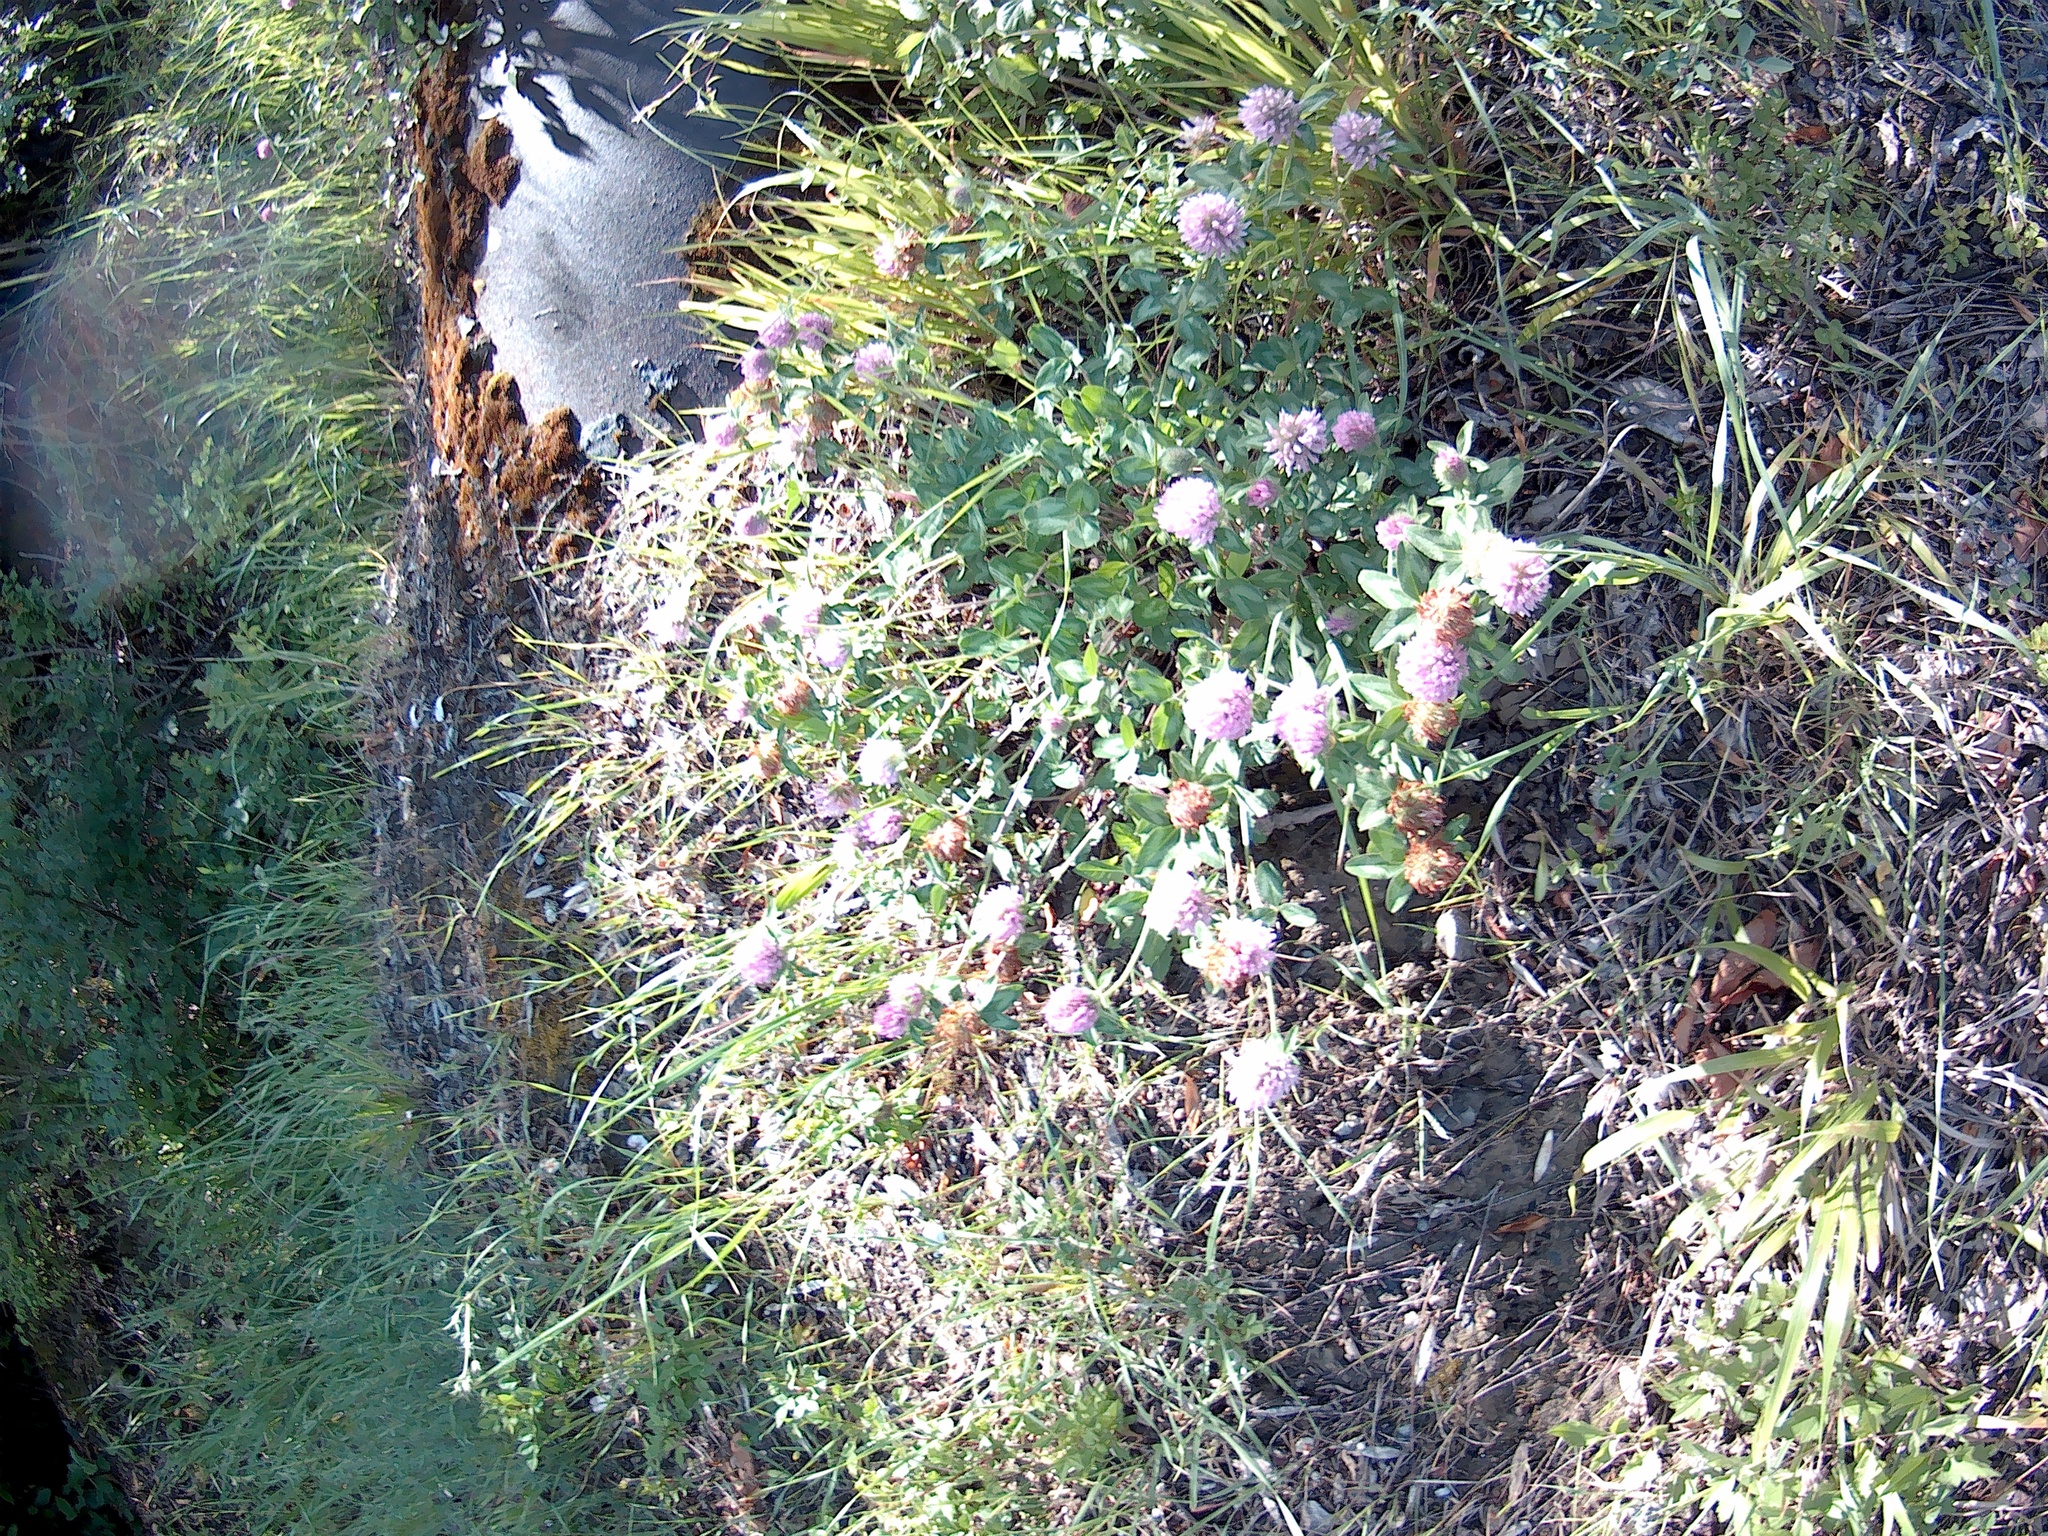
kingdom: Plantae
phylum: Tracheophyta
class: Magnoliopsida
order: Fabales
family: Fabaceae
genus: Trifolium
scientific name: Trifolium pratense
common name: Red clover
